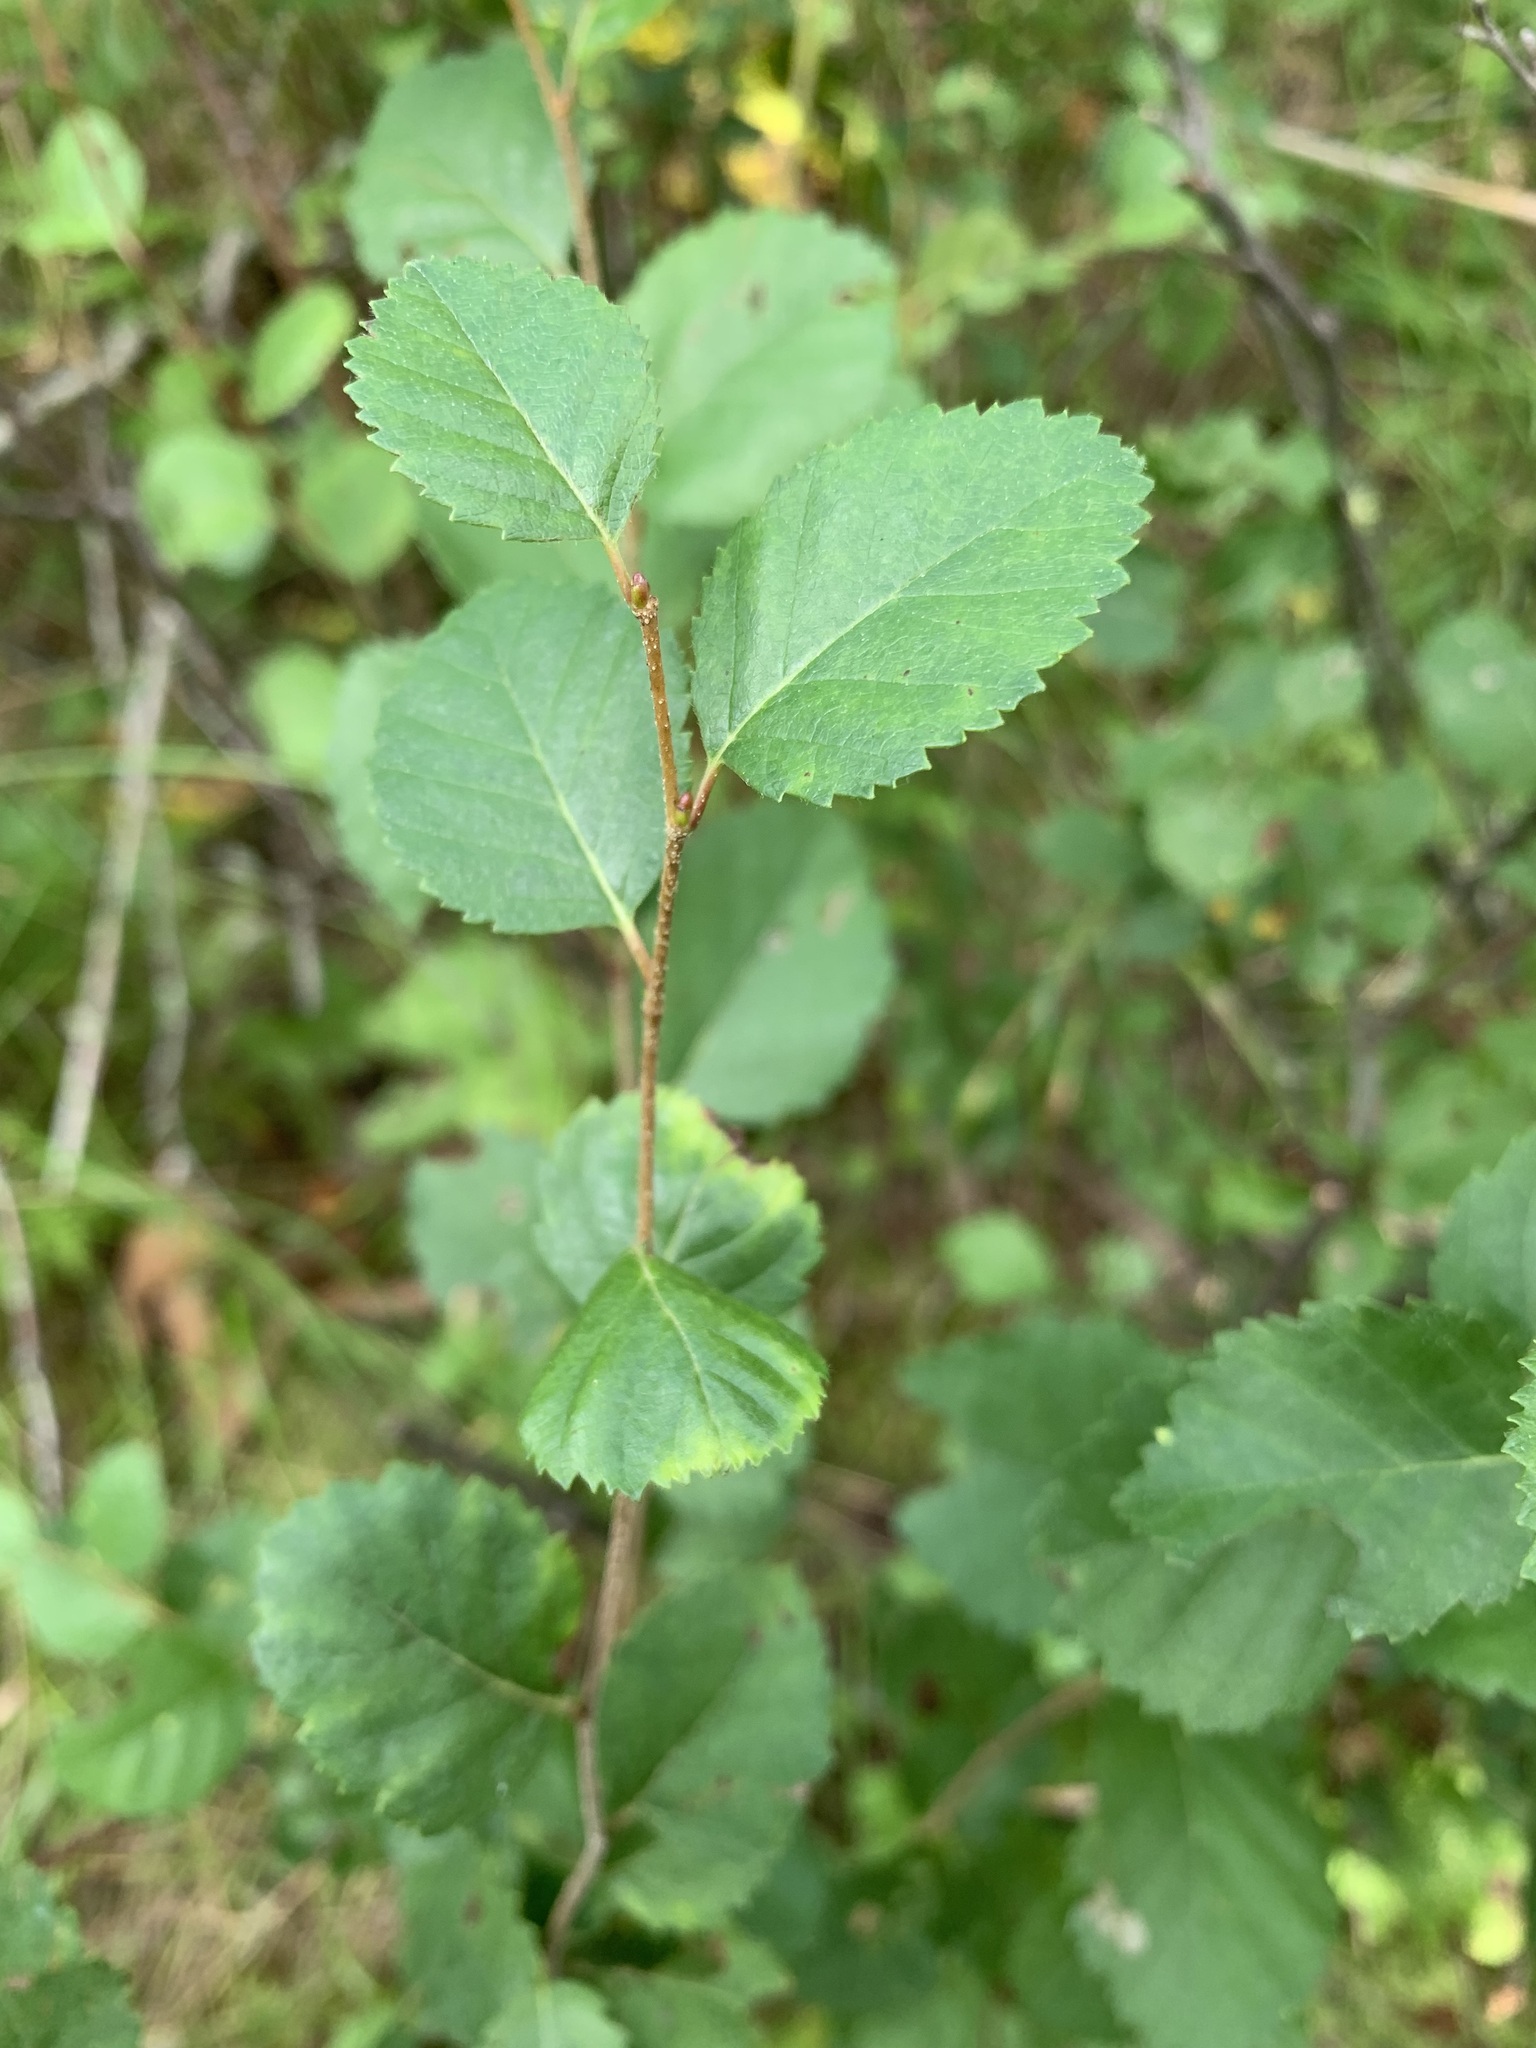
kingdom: Plantae
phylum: Tracheophyta
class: Magnoliopsida
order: Fagales
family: Betulaceae
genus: Betula
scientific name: Betula humilis
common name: Shrubby birch
